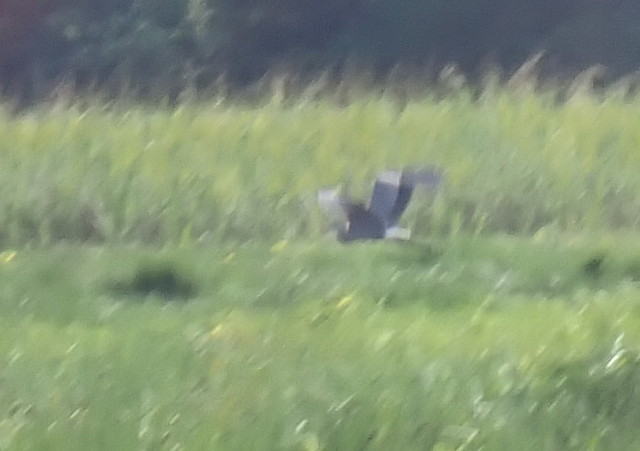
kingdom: Animalia
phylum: Chordata
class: Aves
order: Pelecaniformes
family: Ardeidae
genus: Ardea
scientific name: Ardea herodias
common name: Great blue heron
